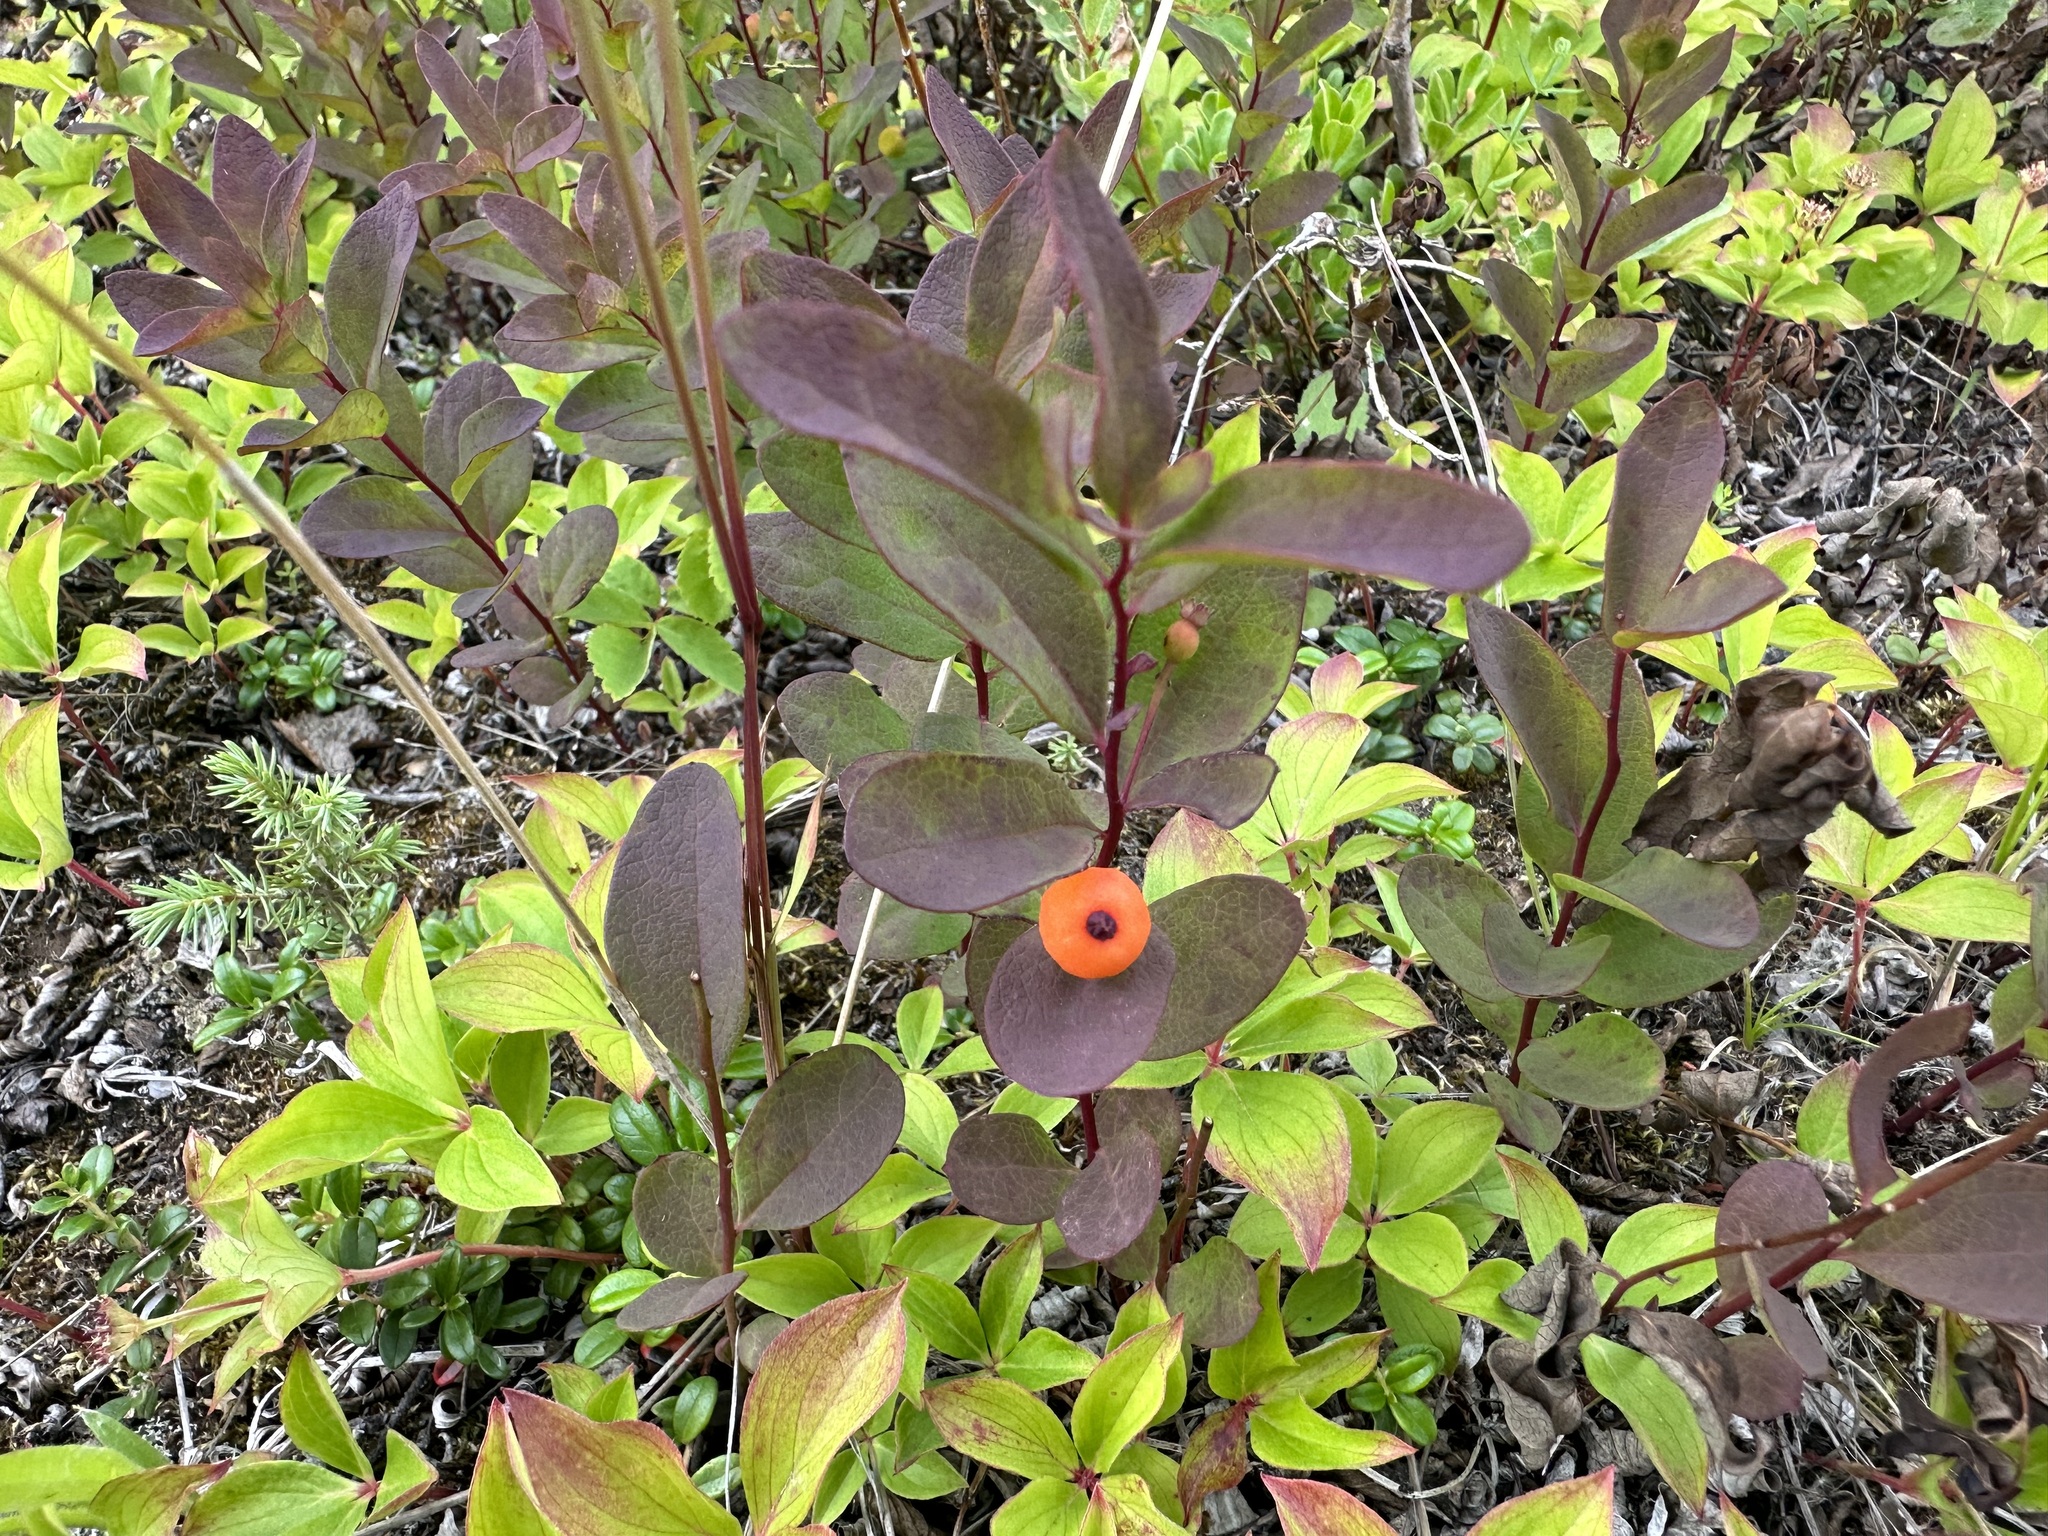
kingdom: Plantae
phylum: Tracheophyta
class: Magnoliopsida
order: Santalales
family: Comandraceae
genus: Geocaulon
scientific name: Geocaulon lividum
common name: Earthberry
